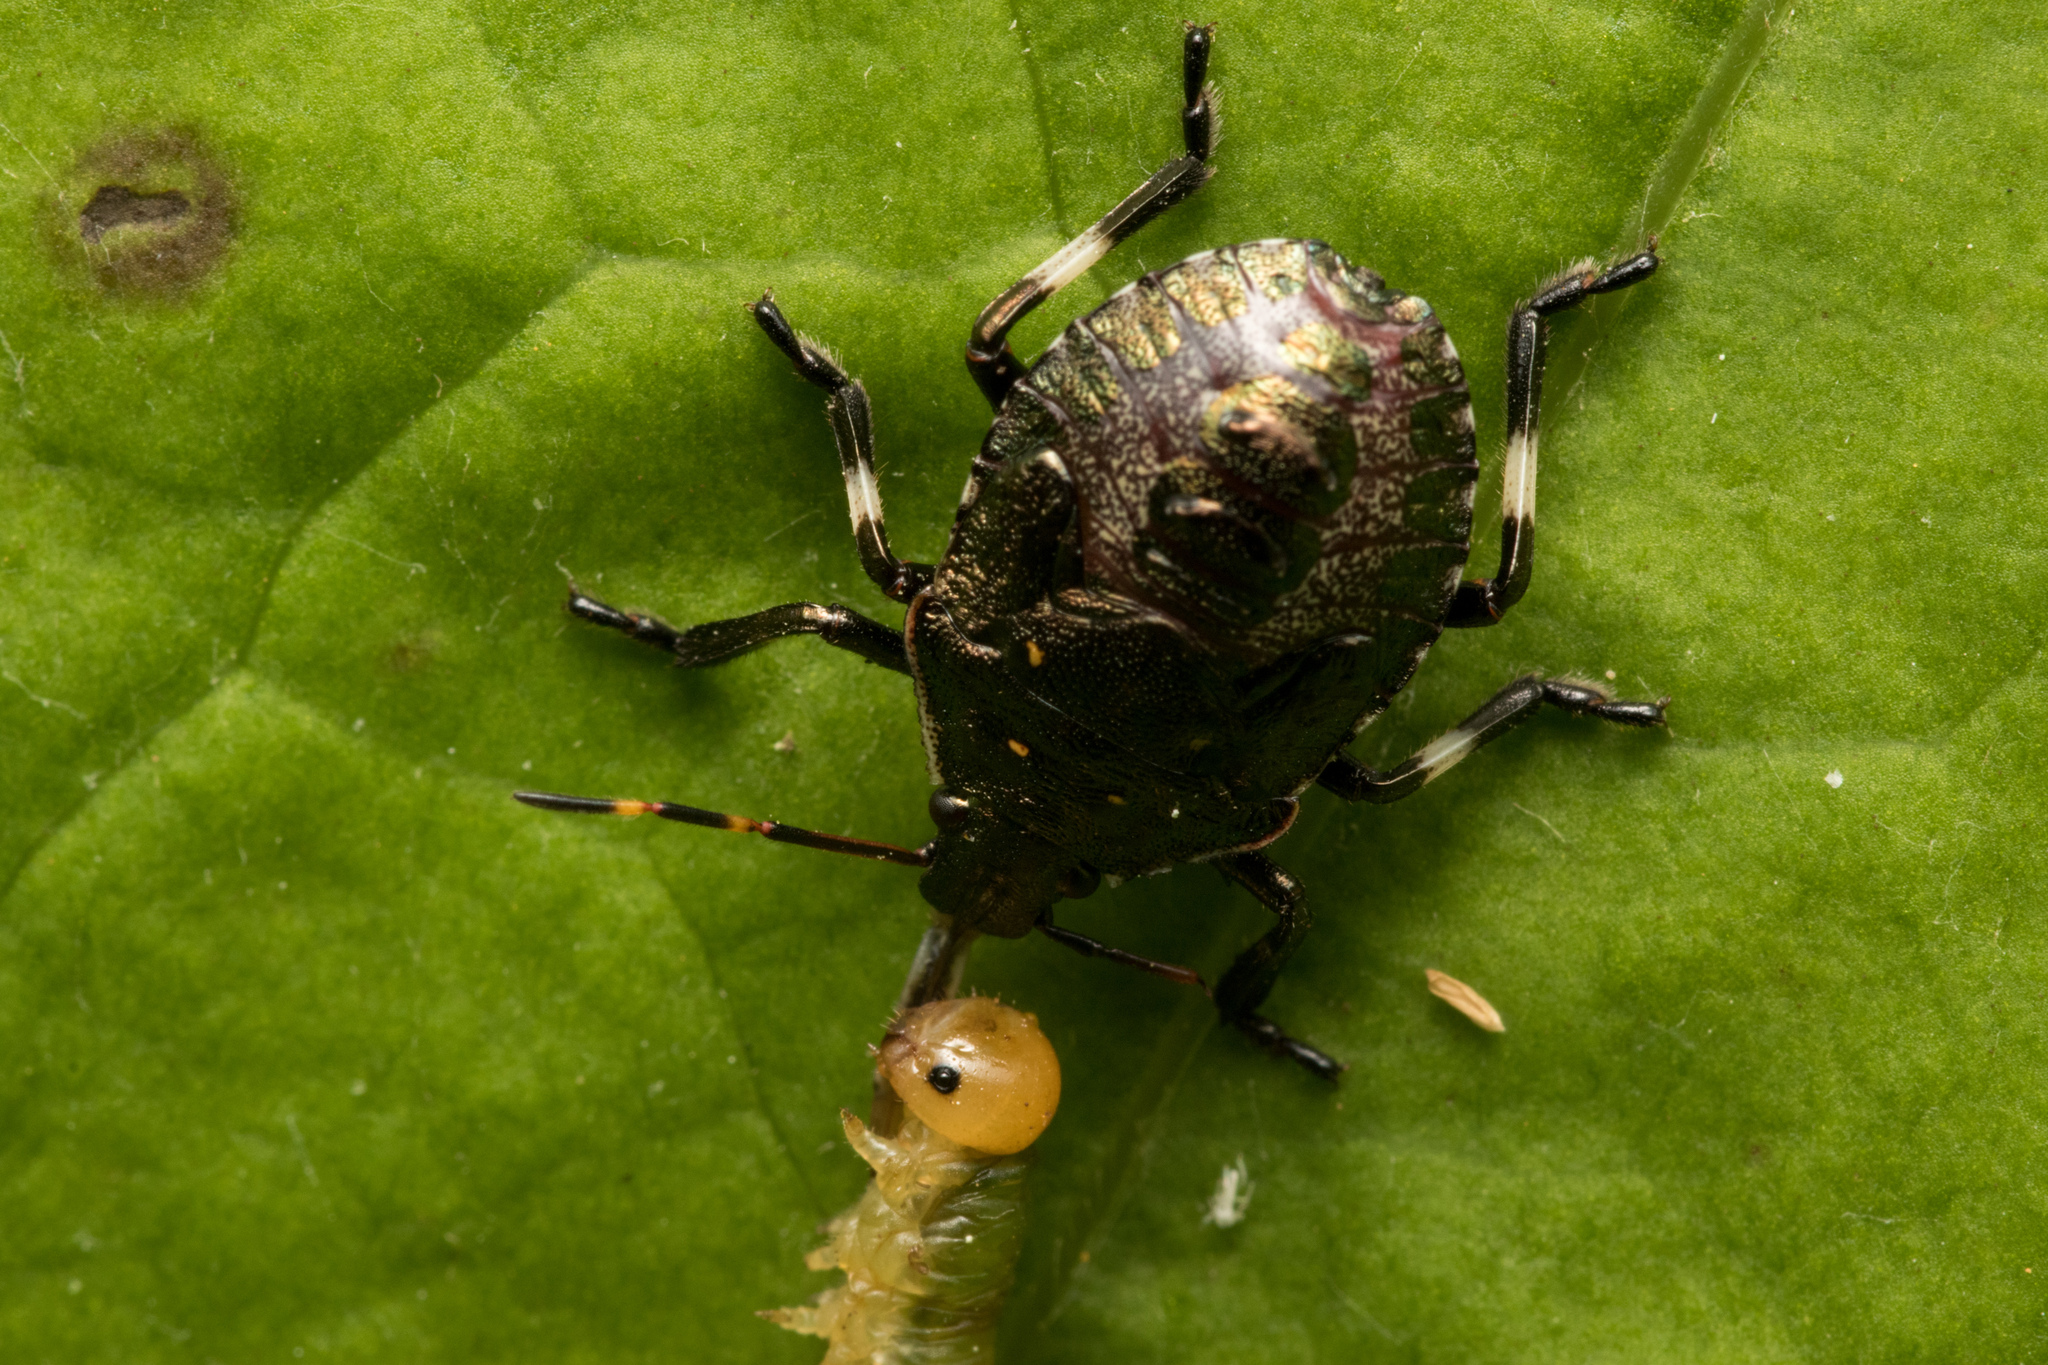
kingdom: Animalia
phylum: Arthropoda
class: Insecta
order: Hemiptera
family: Pentatomidae
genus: Picromerus
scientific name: Picromerus bidens
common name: Spiked shieldbug
